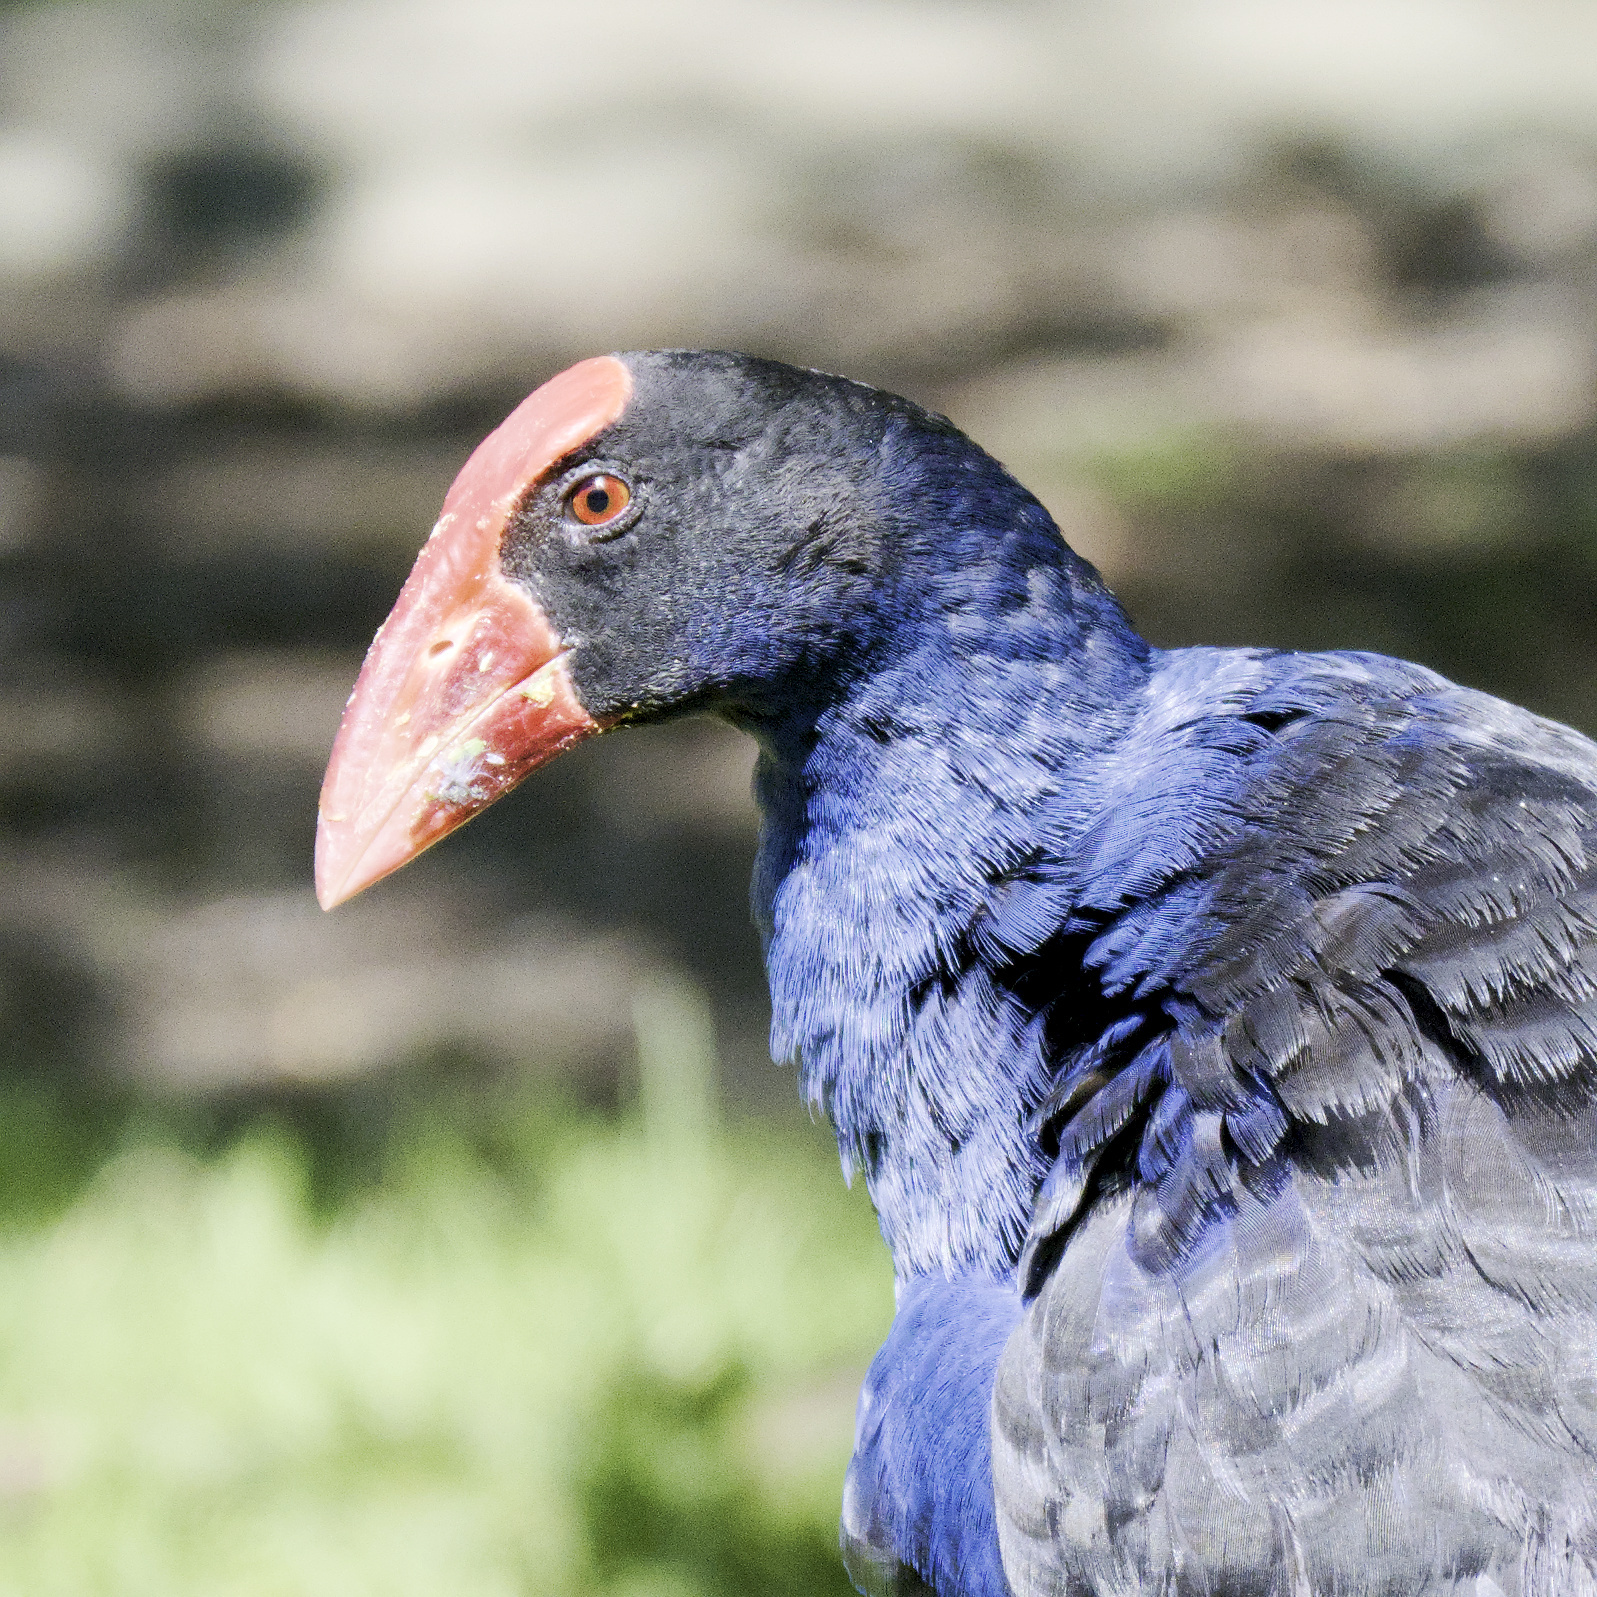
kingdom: Animalia
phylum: Chordata
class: Aves
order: Gruiformes
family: Rallidae
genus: Porphyrio
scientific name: Porphyrio melanotus
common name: Australasian swamphen
